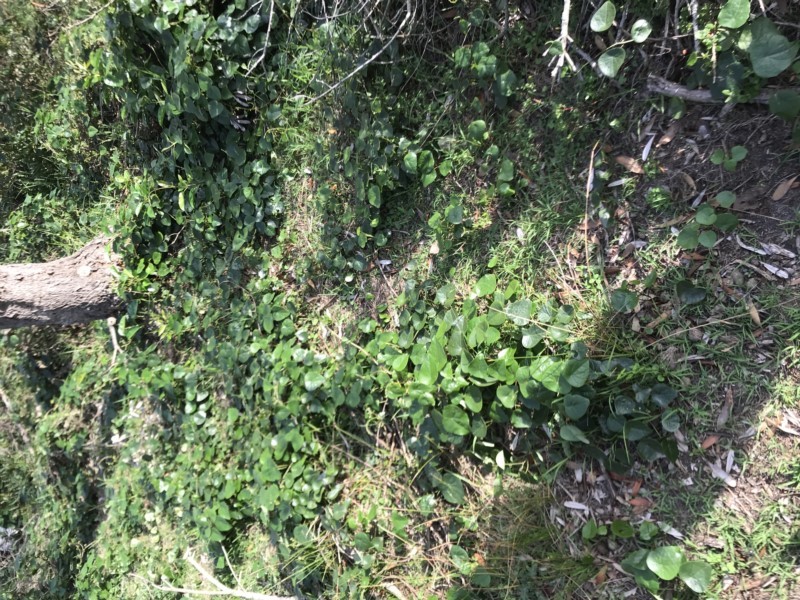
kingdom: Plantae
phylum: Tracheophyta
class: Magnoliopsida
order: Ranunculales
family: Menispermaceae
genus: Stephania
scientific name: Stephania japonica
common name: Snake vine
